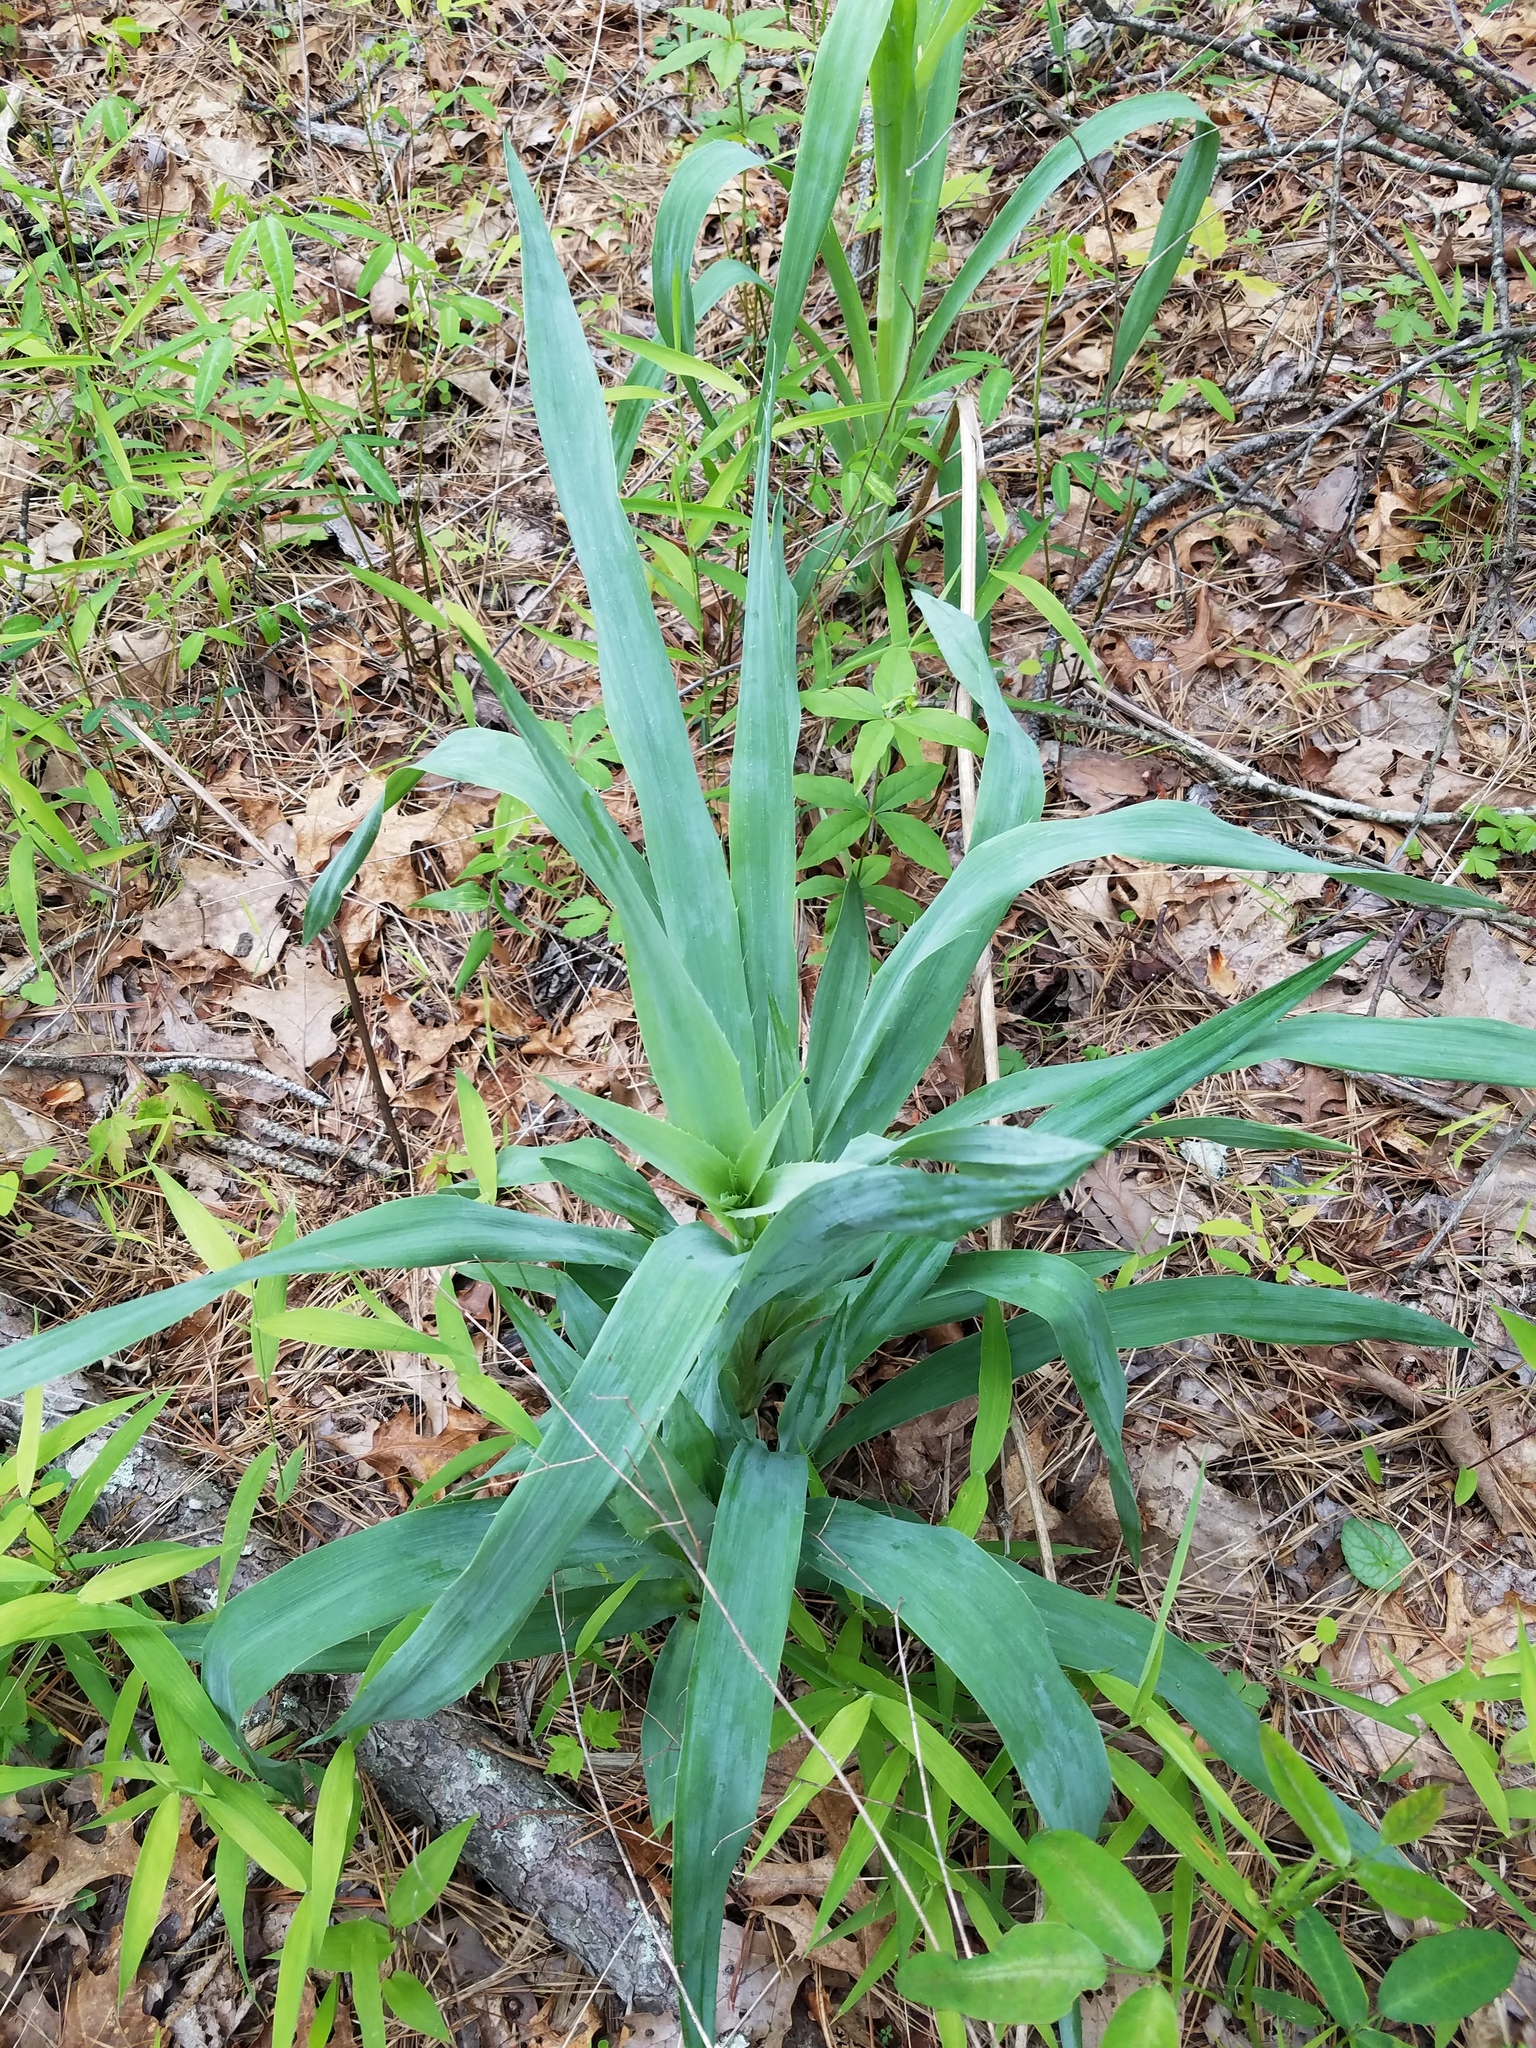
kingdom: Plantae
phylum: Tracheophyta
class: Magnoliopsida
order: Apiales
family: Apiaceae
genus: Eryngium
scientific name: Eryngium yuccifolium
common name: Button eryngo
